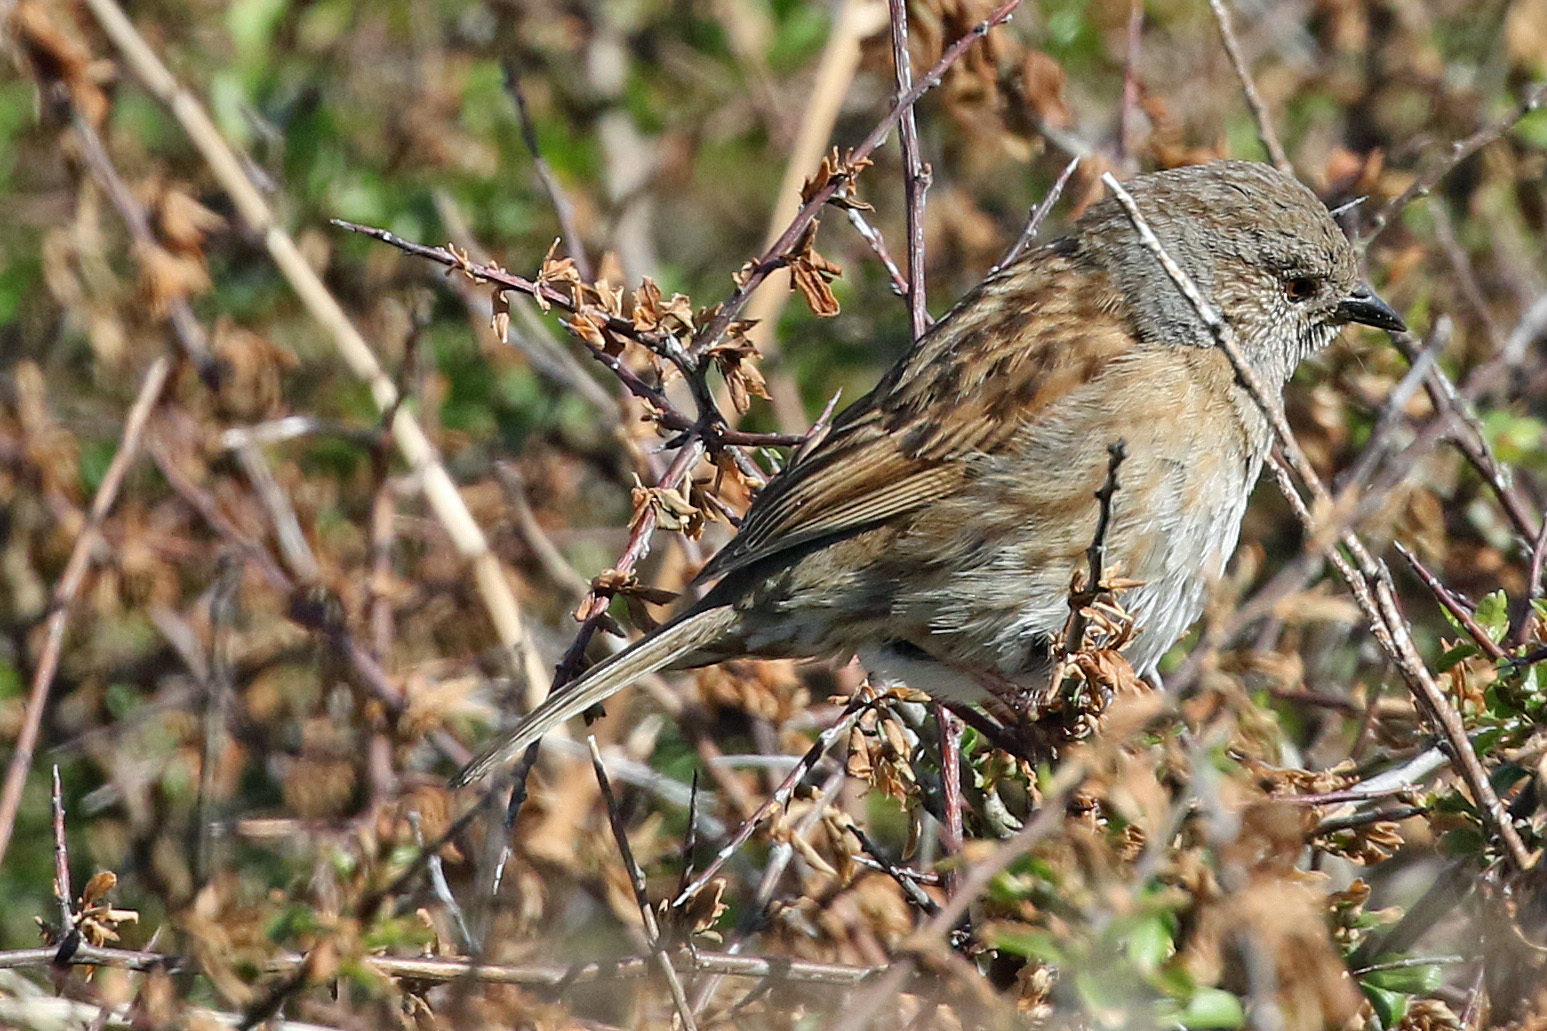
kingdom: Animalia
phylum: Chordata
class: Aves
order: Passeriformes
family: Prunellidae
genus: Prunella
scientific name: Prunella modularis
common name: Dunnock
